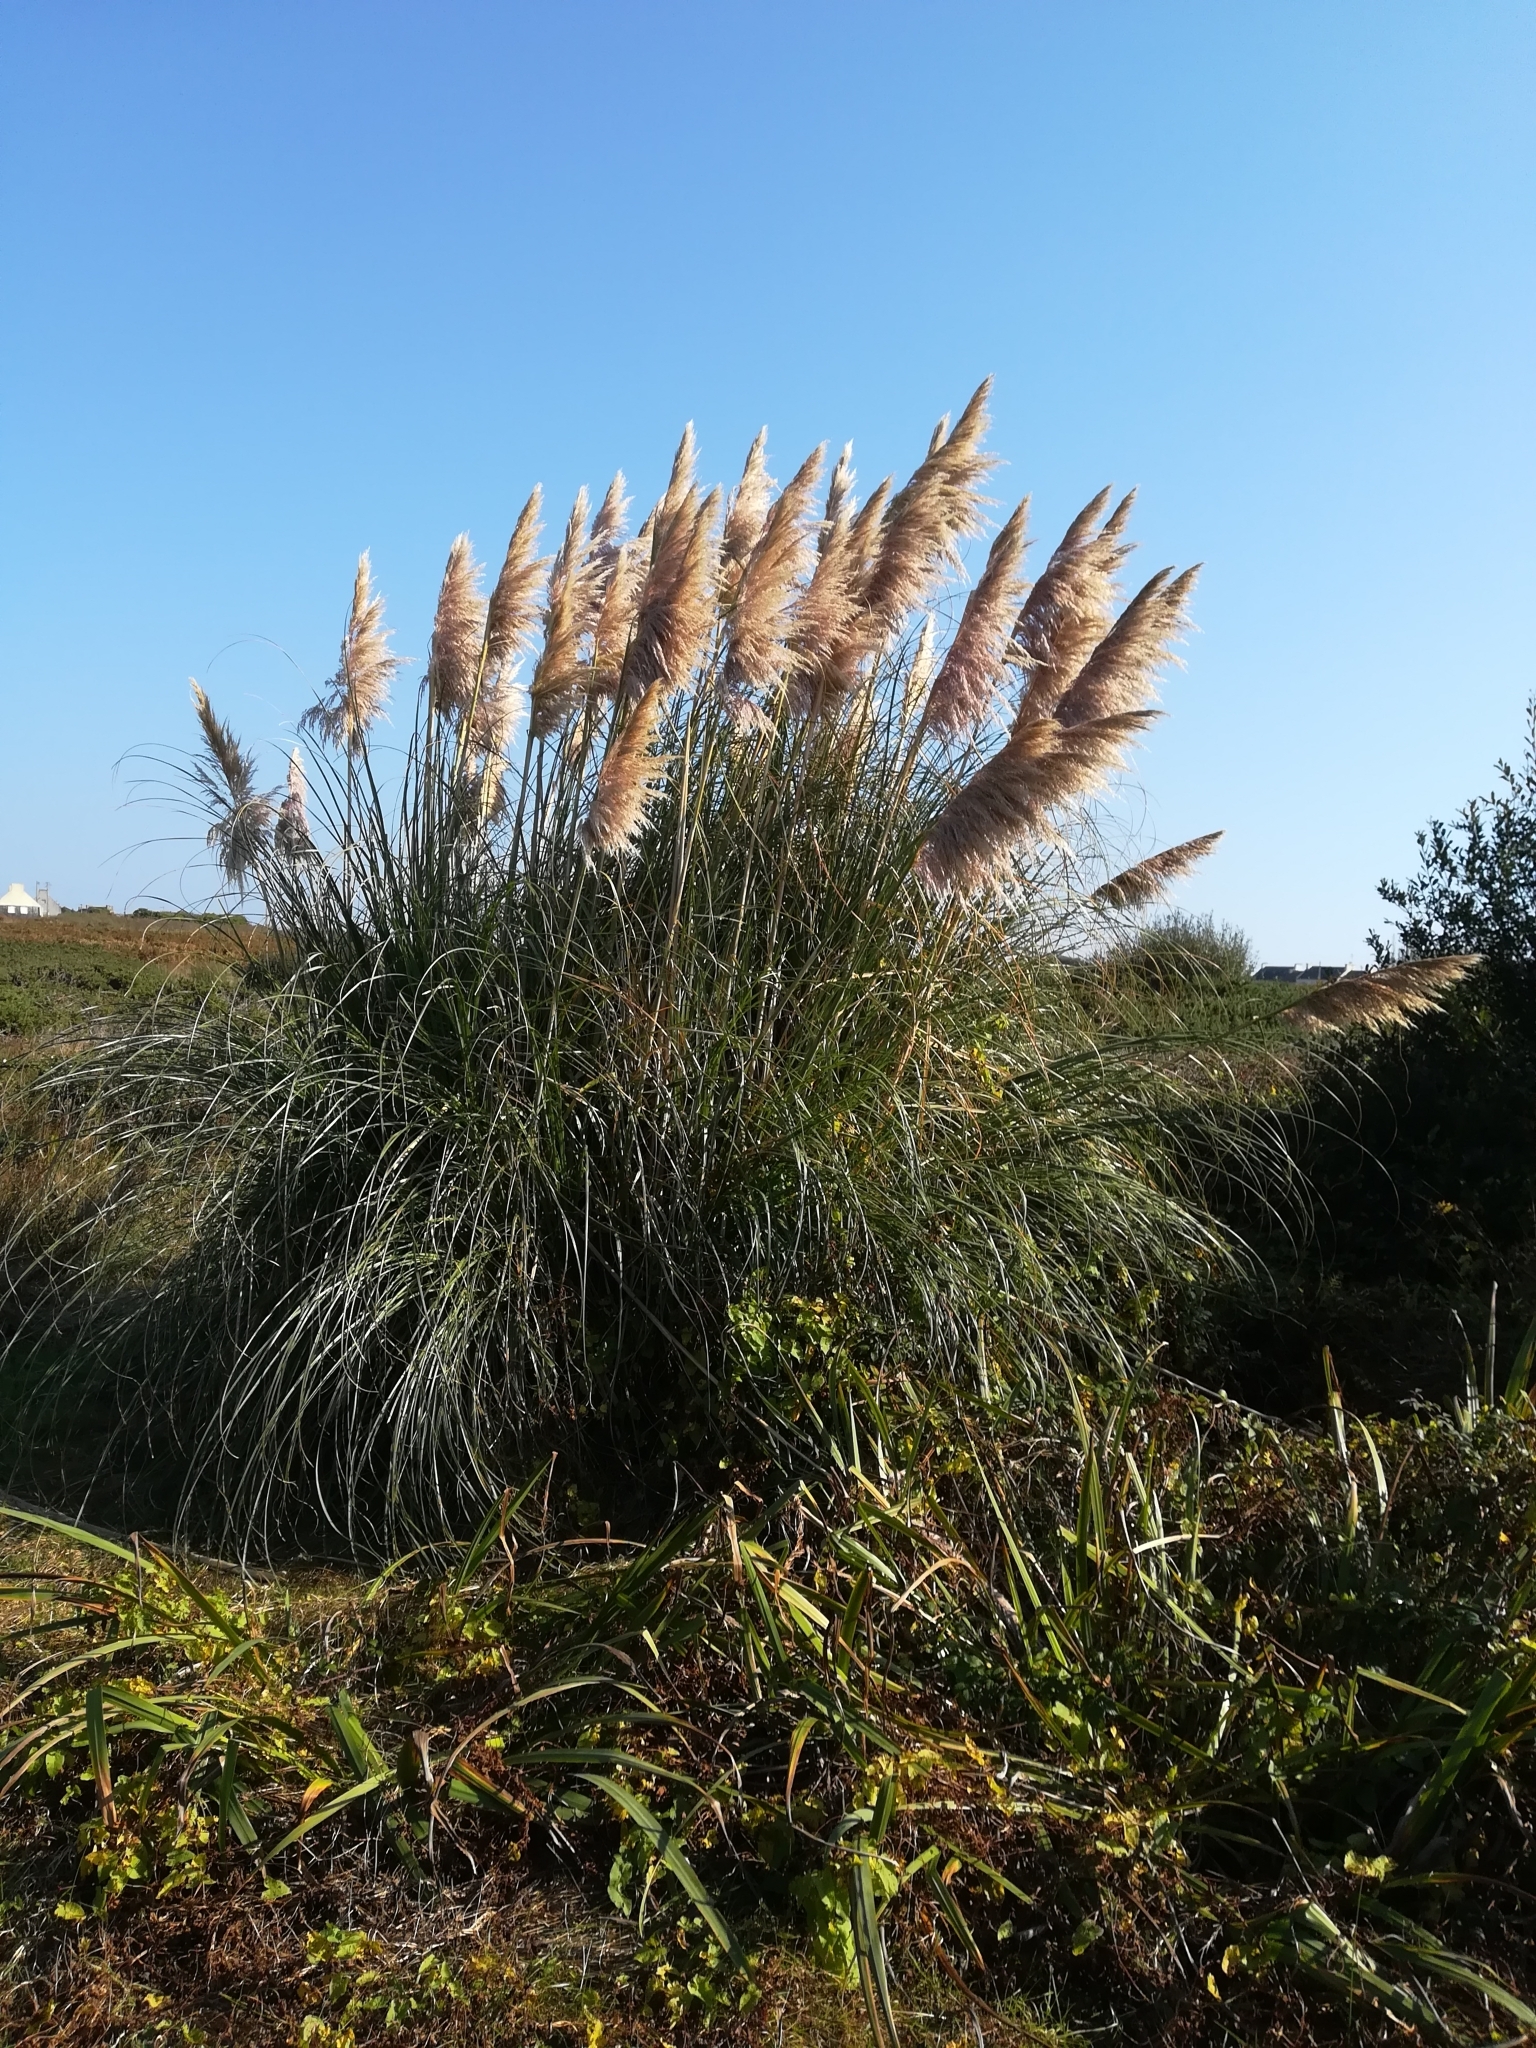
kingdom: Plantae
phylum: Tracheophyta
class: Liliopsida
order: Poales
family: Poaceae
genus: Cortaderia
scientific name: Cortaderia selloana
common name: Uruguayan pampas grass
